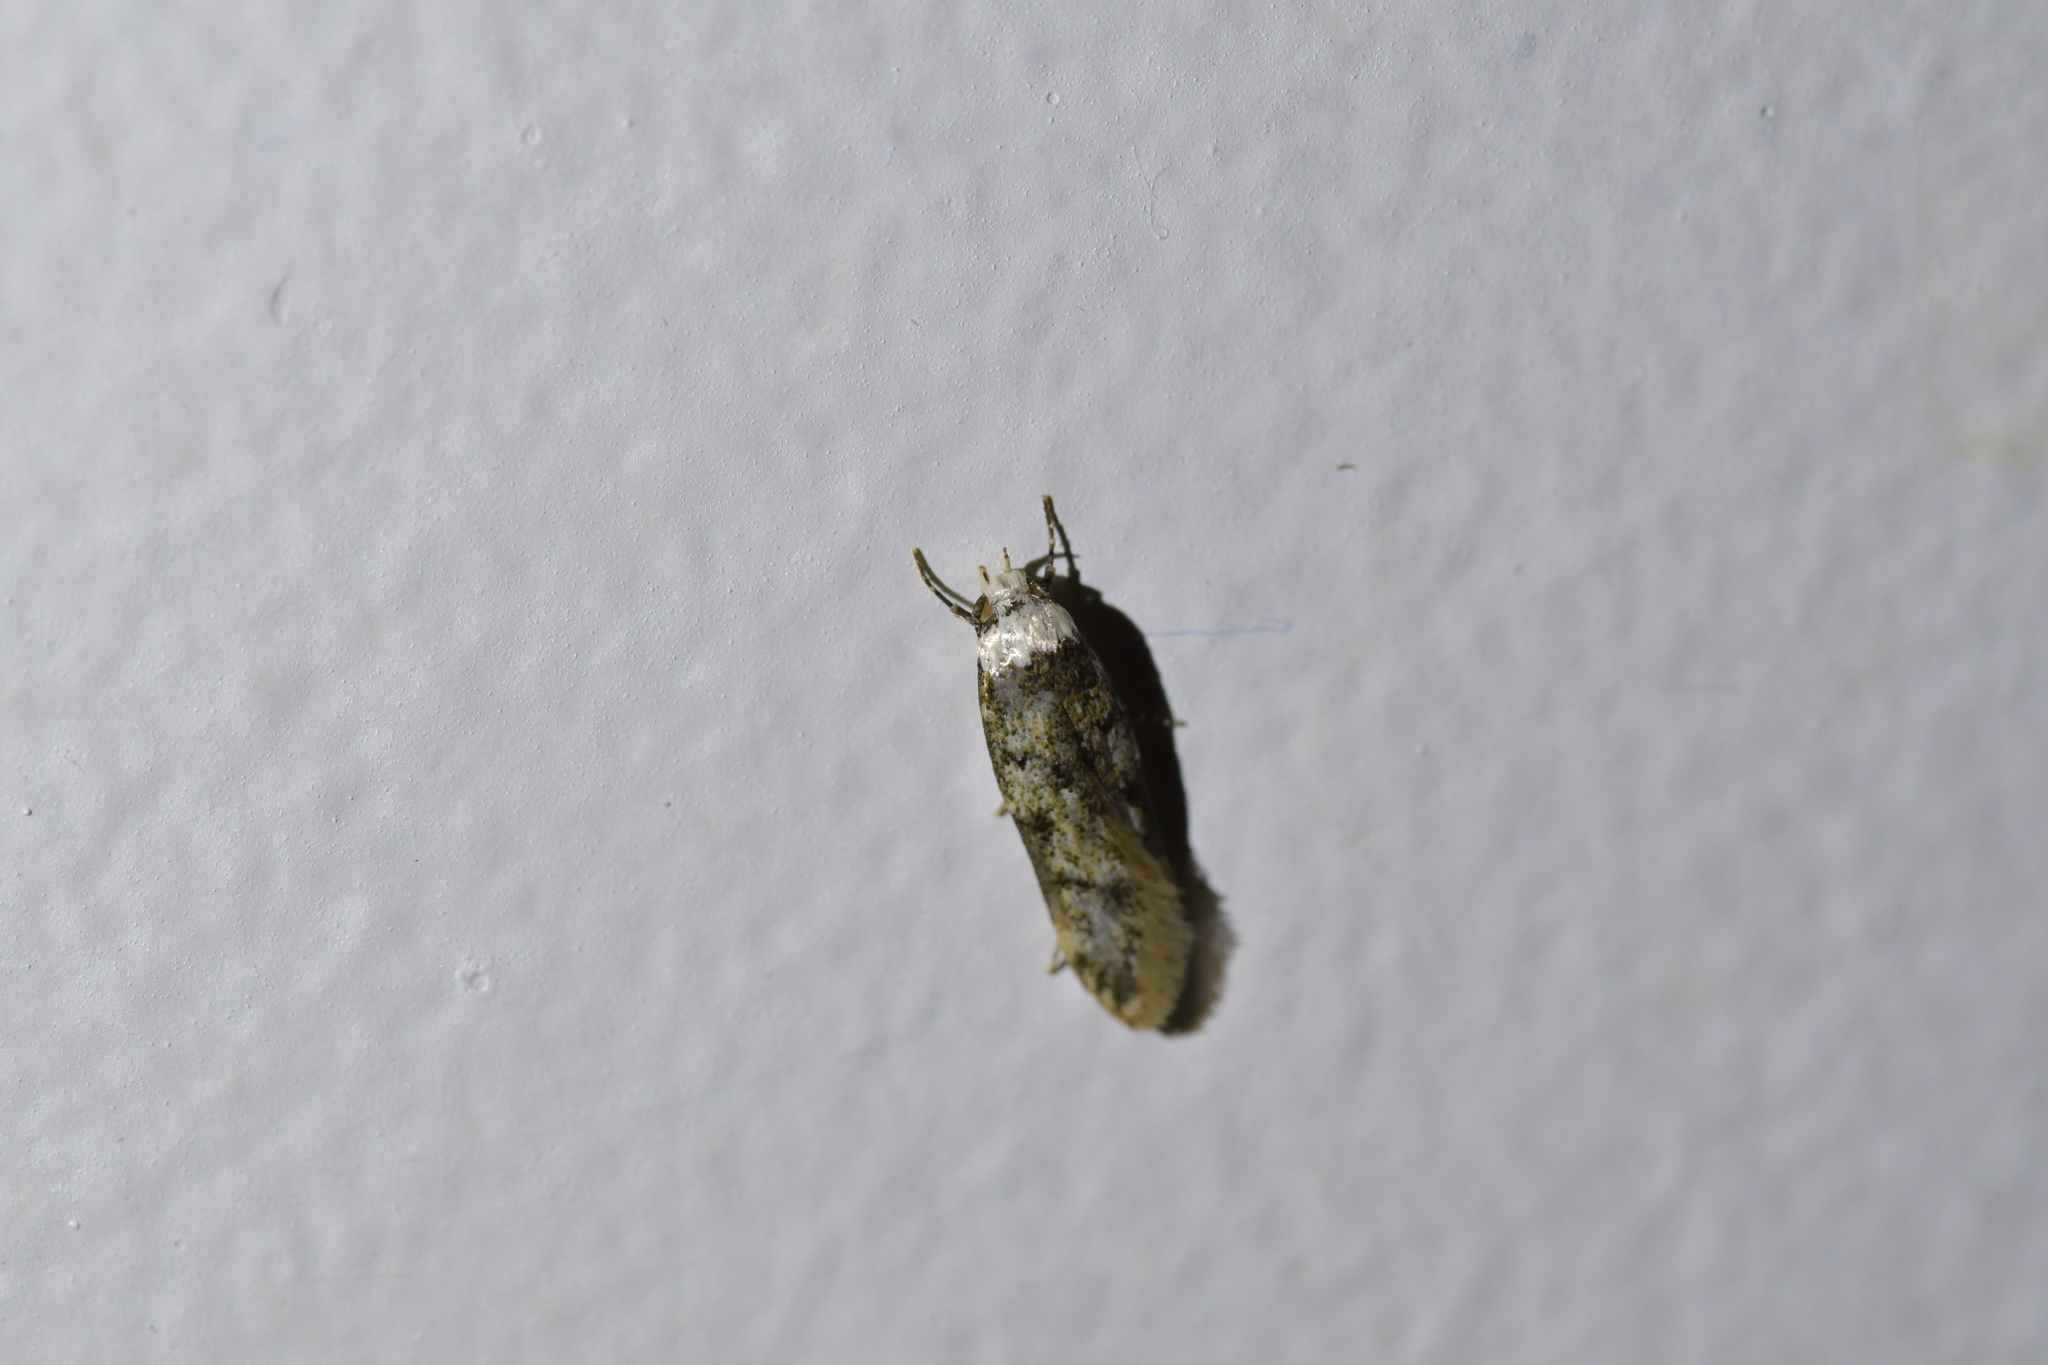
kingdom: Animalia
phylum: Arthropoda
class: Insecta
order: Lepidoptera
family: Oecophoridae
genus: Endrosis
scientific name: Endrosis sarcitrella
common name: White-shouldered house moth
